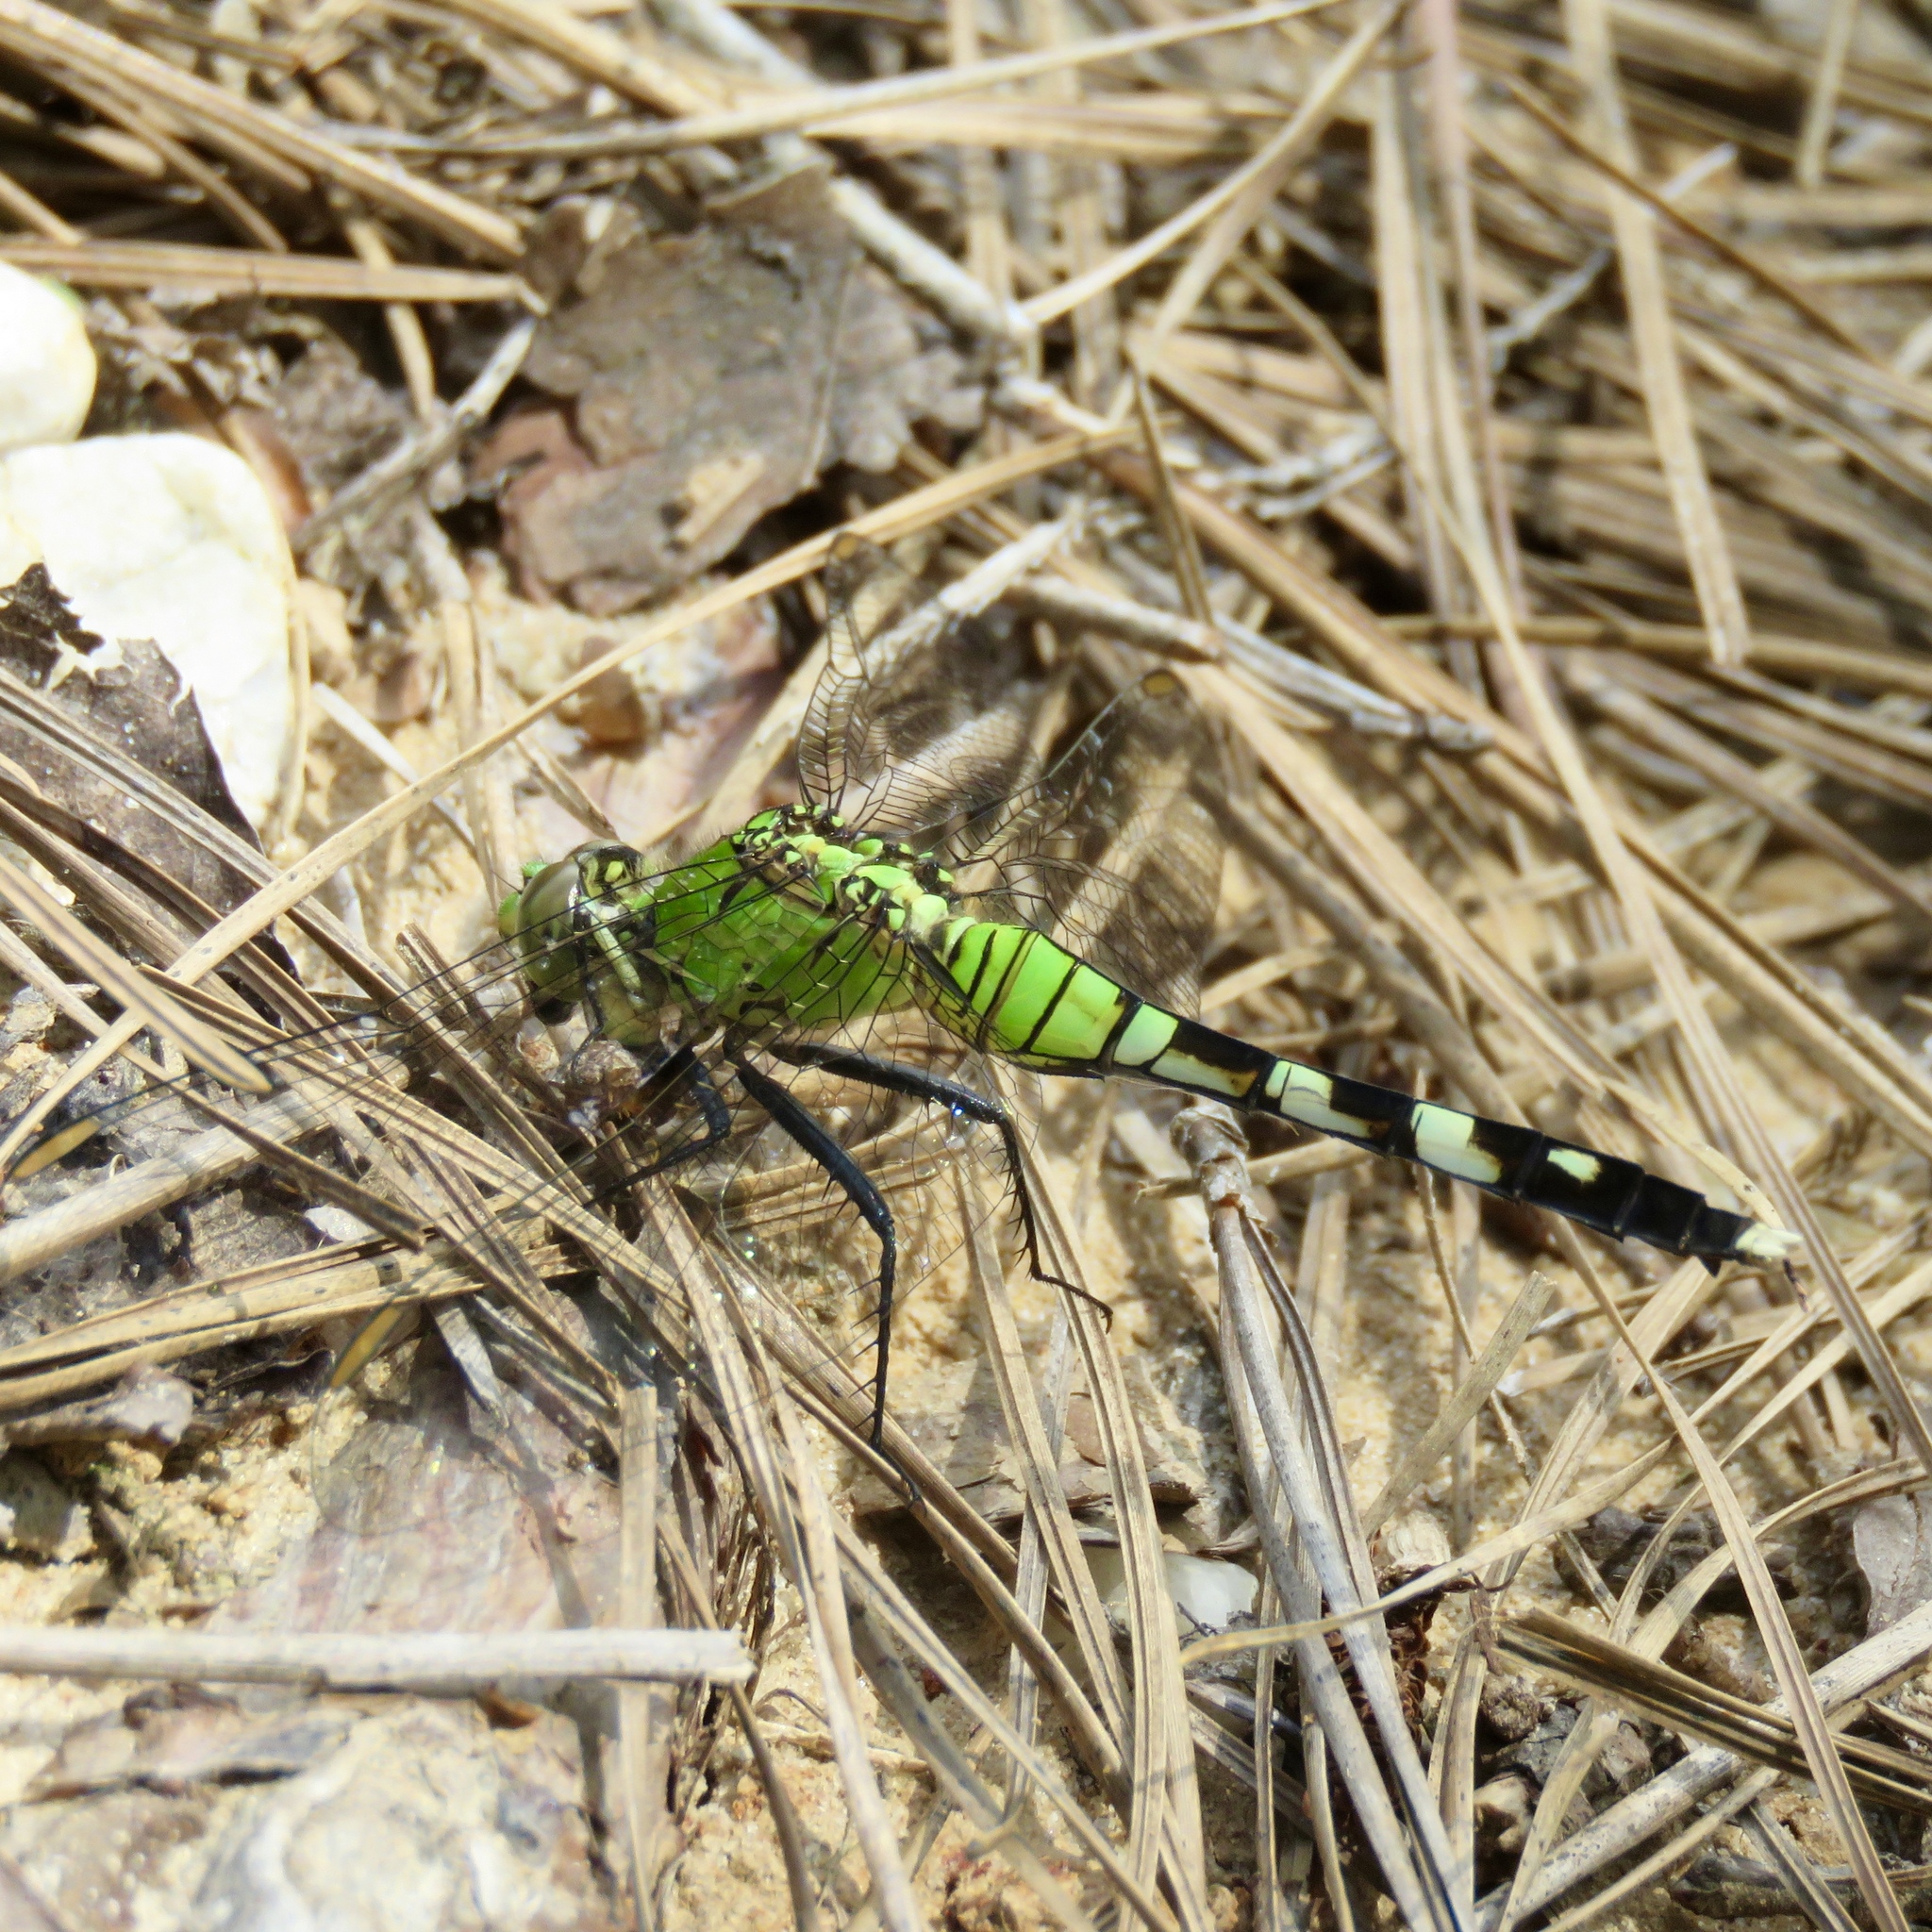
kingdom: Animalia
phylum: Arthropoda
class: Insecta
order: Odonata
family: Libellulidae
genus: Erythemis
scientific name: Erythemis simplicicollis
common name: Eastern pondhawk
